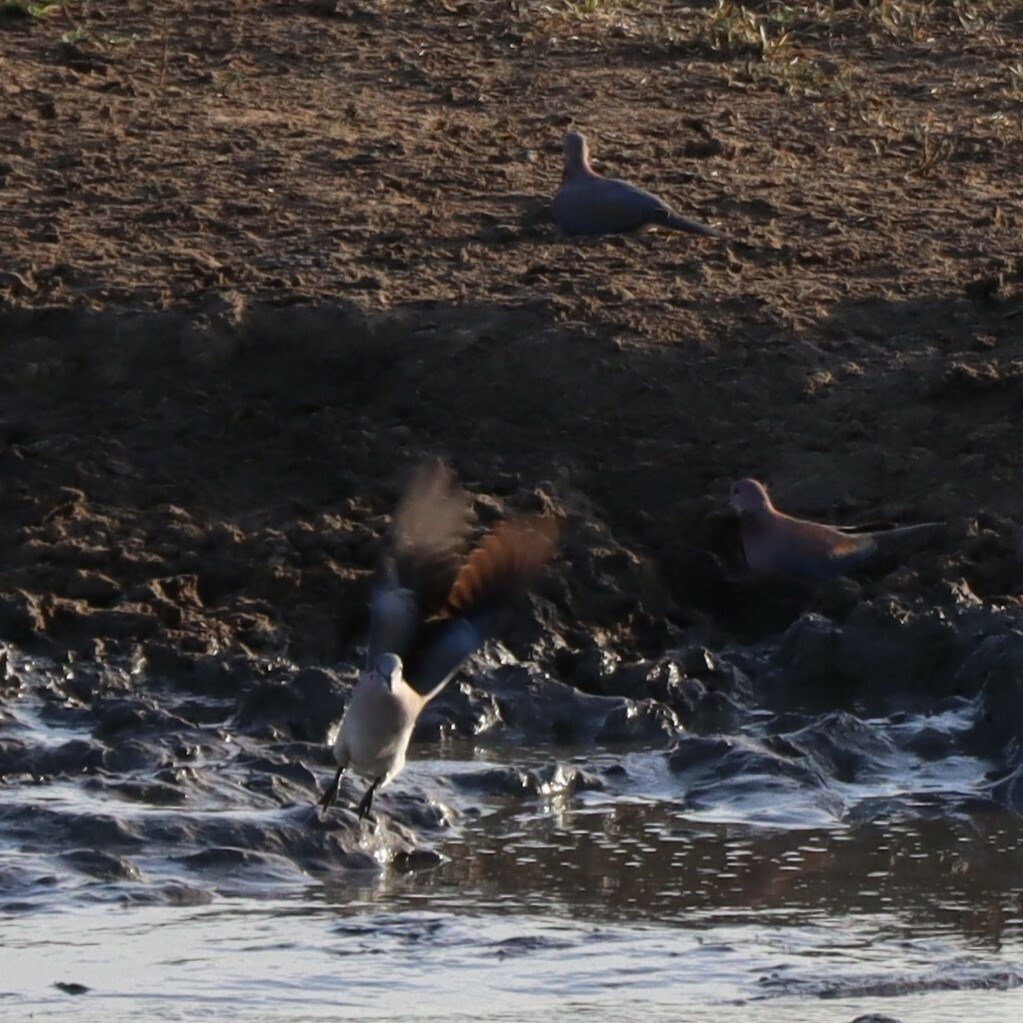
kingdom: Animalia
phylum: Chordata
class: Aves
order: Columbiformes
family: Columbidae
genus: Streptopelia
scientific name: Streptopelia capicola
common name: Ring-necked dove
